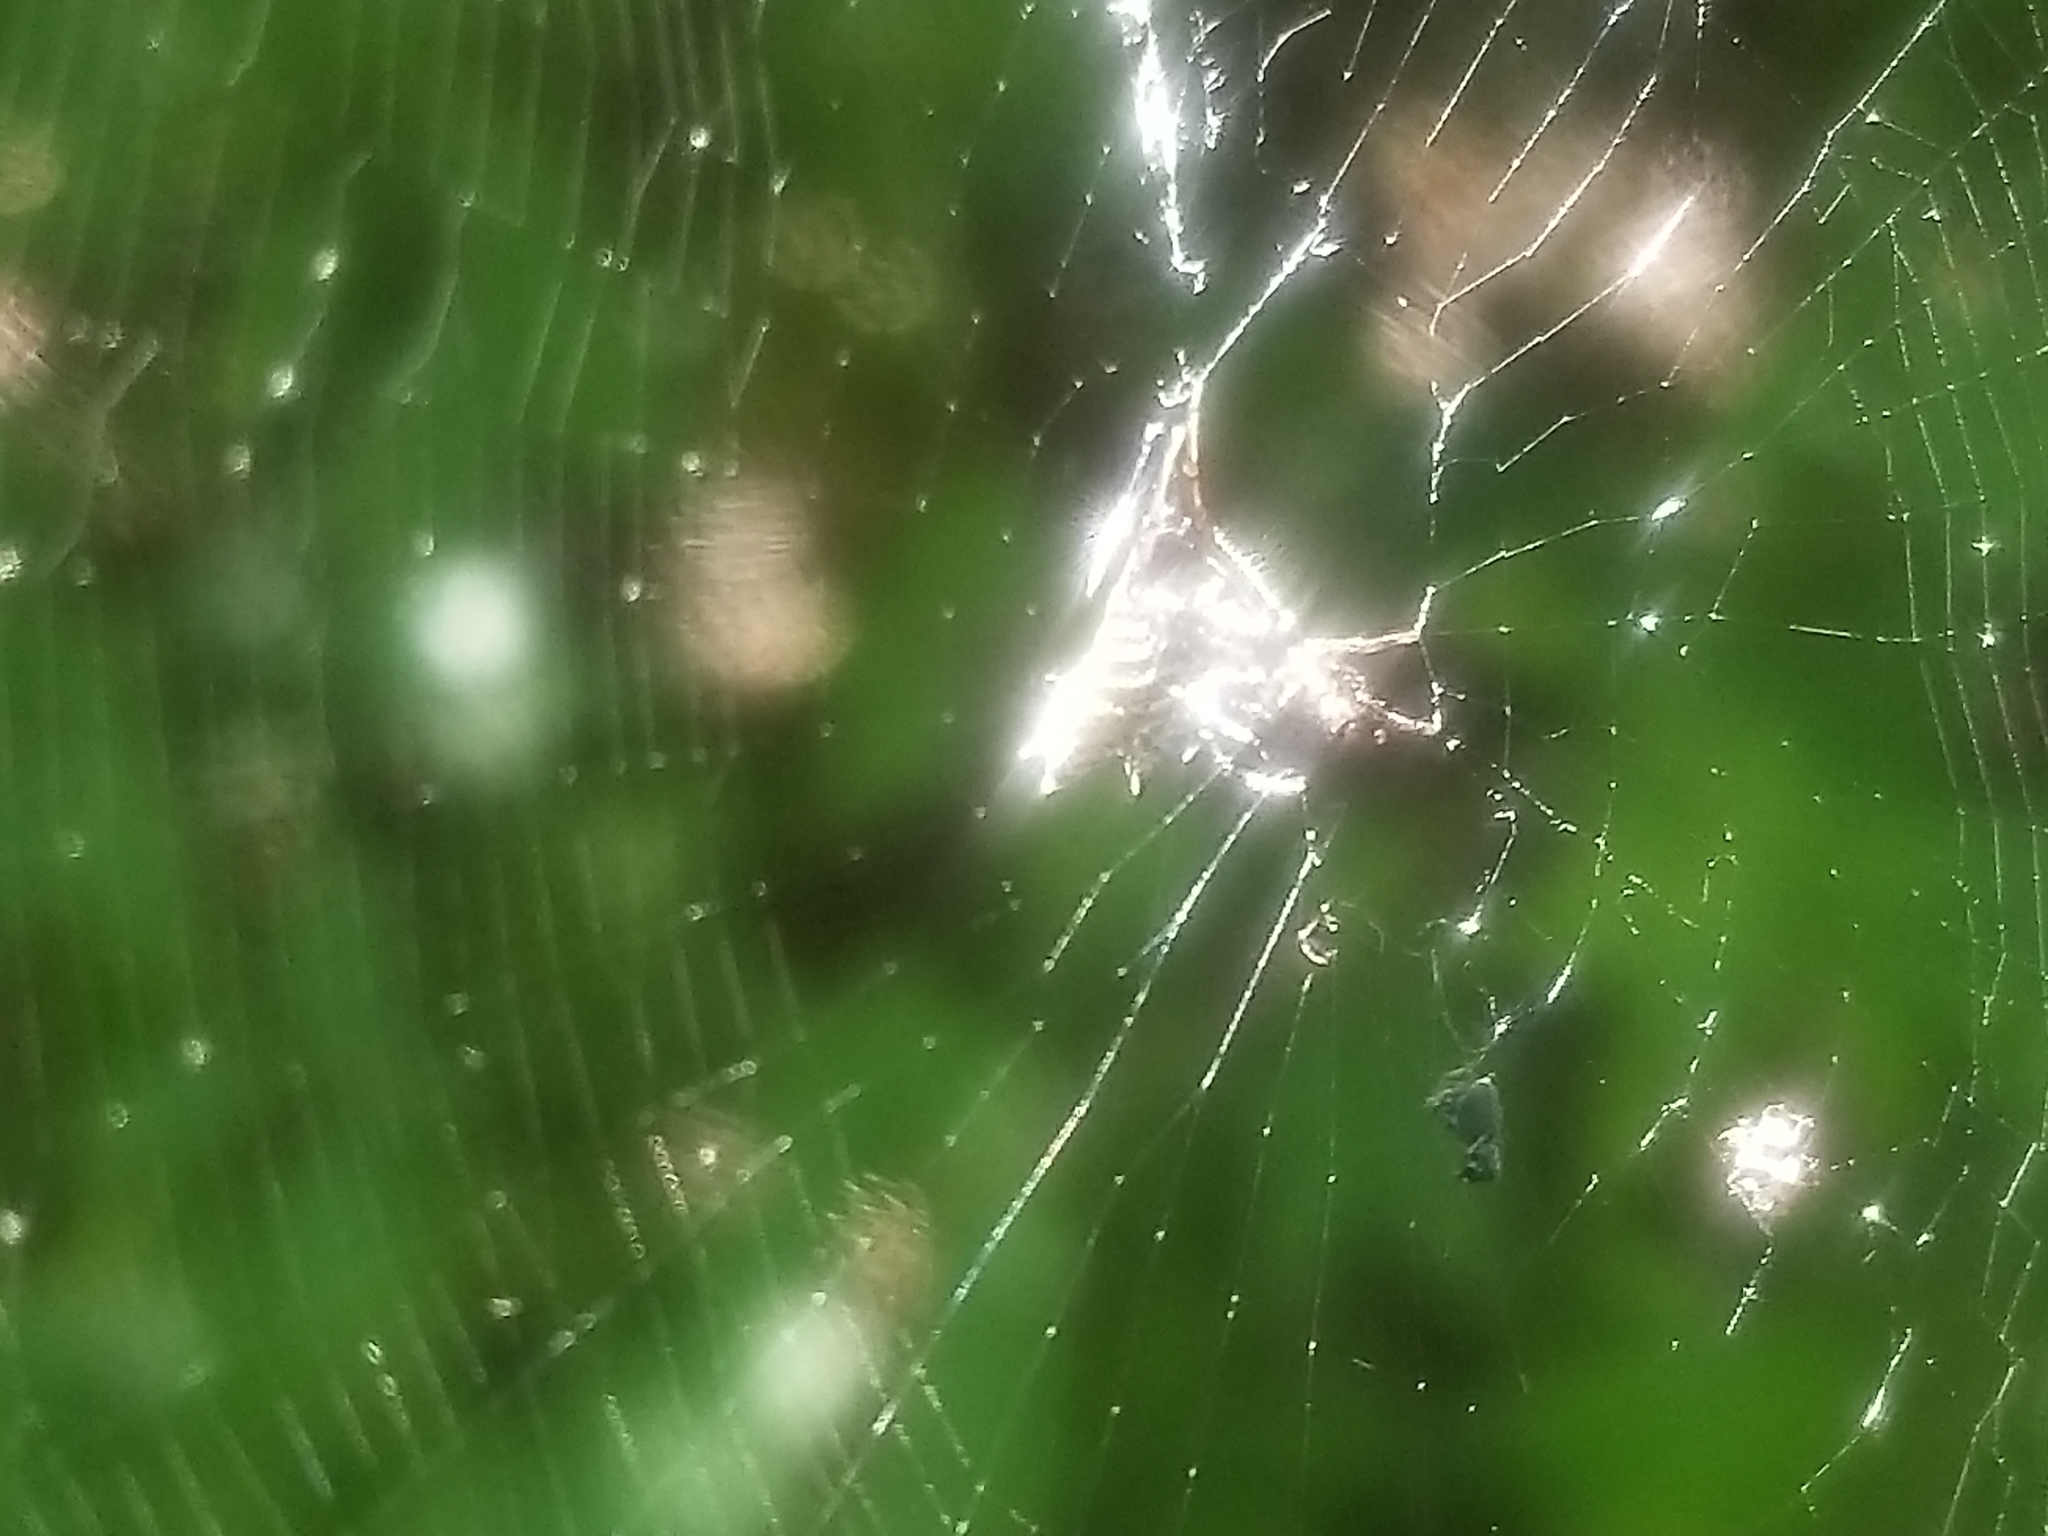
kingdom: Animalia
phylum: Arthropoda
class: Arachnida
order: Araneae
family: Araneidae
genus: Micrathena
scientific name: Micrathena gracilis
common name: Orb weavers
